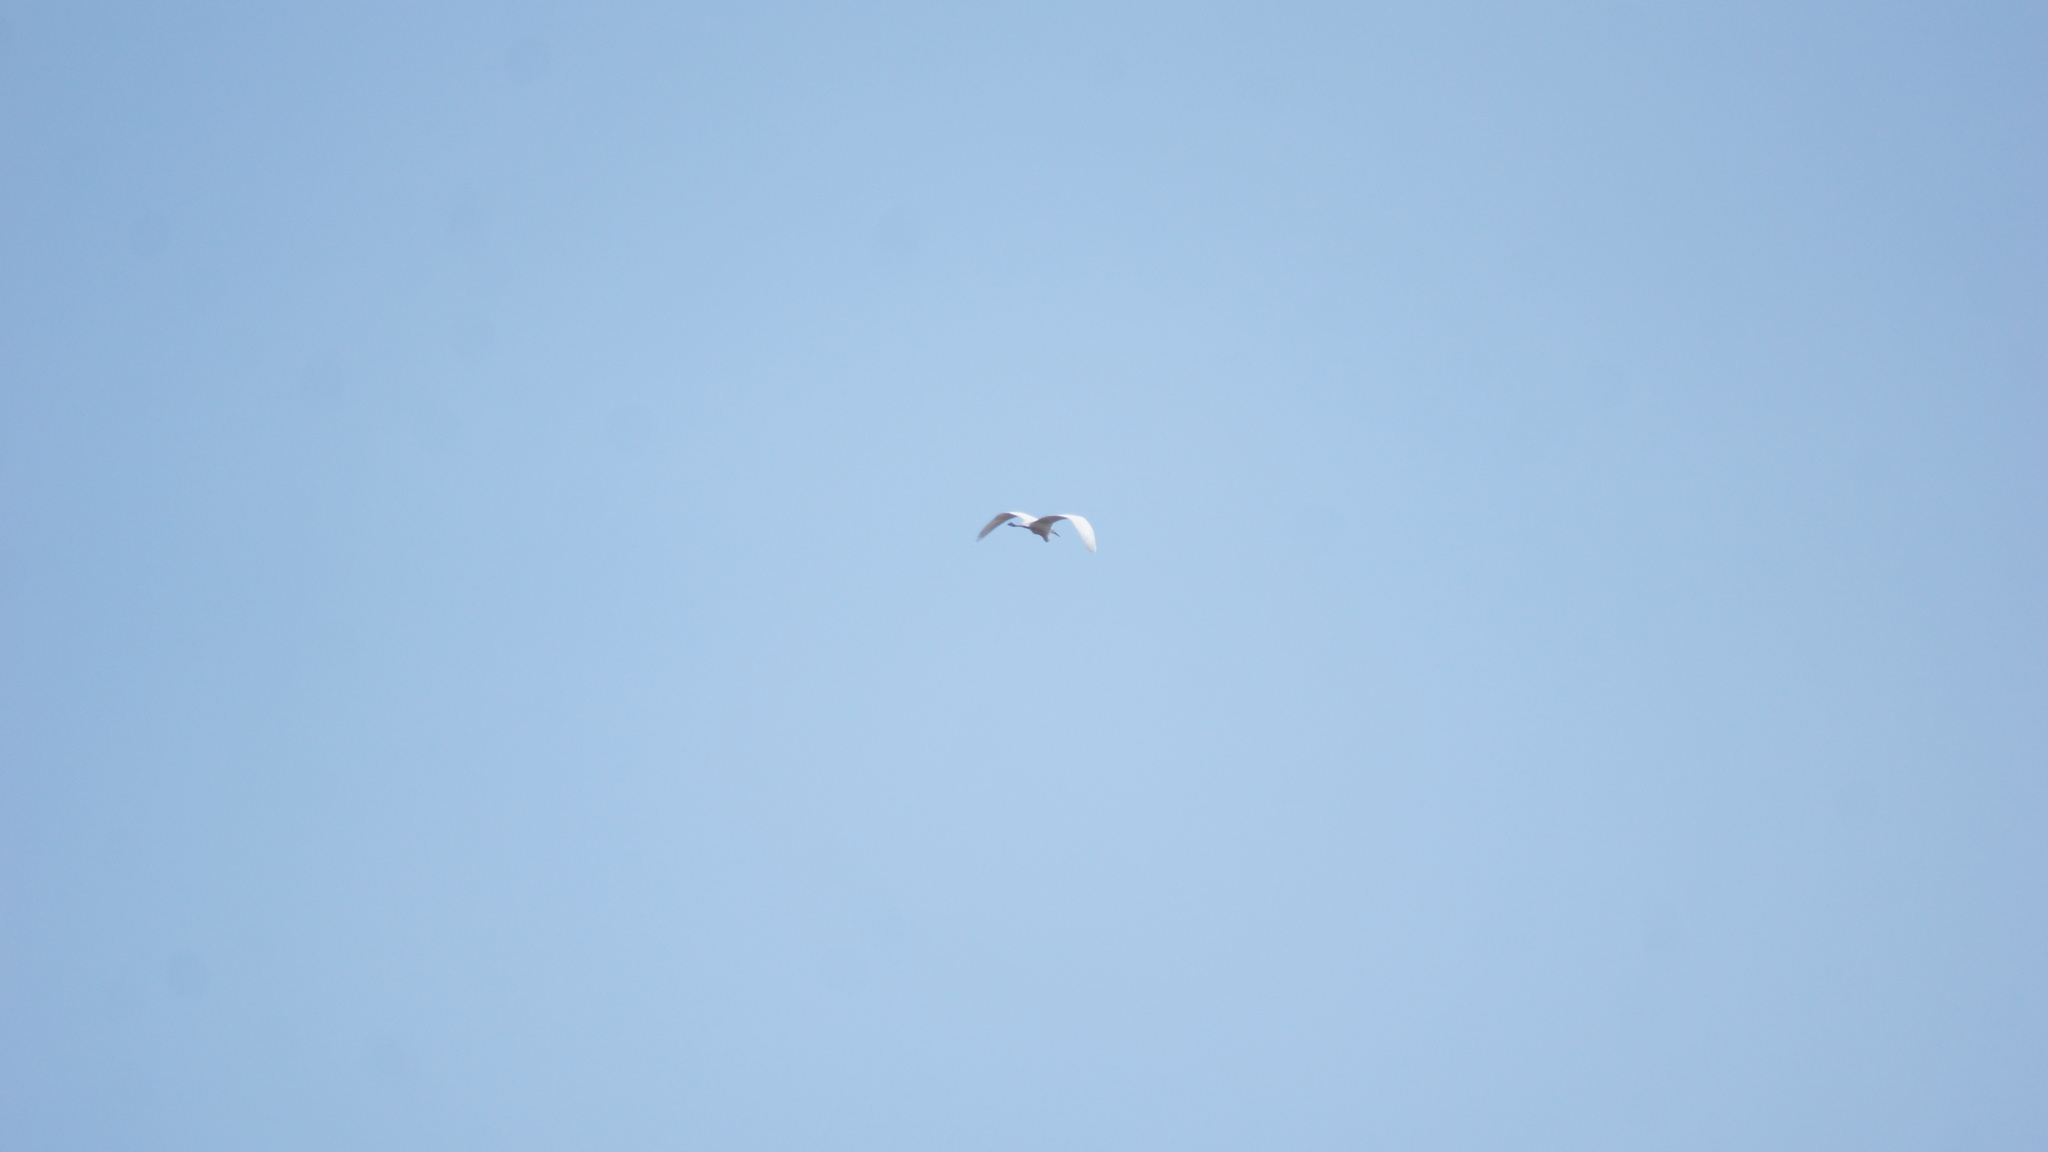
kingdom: Animalia
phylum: Chordata
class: Aves
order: Pelecaniformes
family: Ardeidae
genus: Ardea
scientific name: Ardea alba
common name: Great egret
